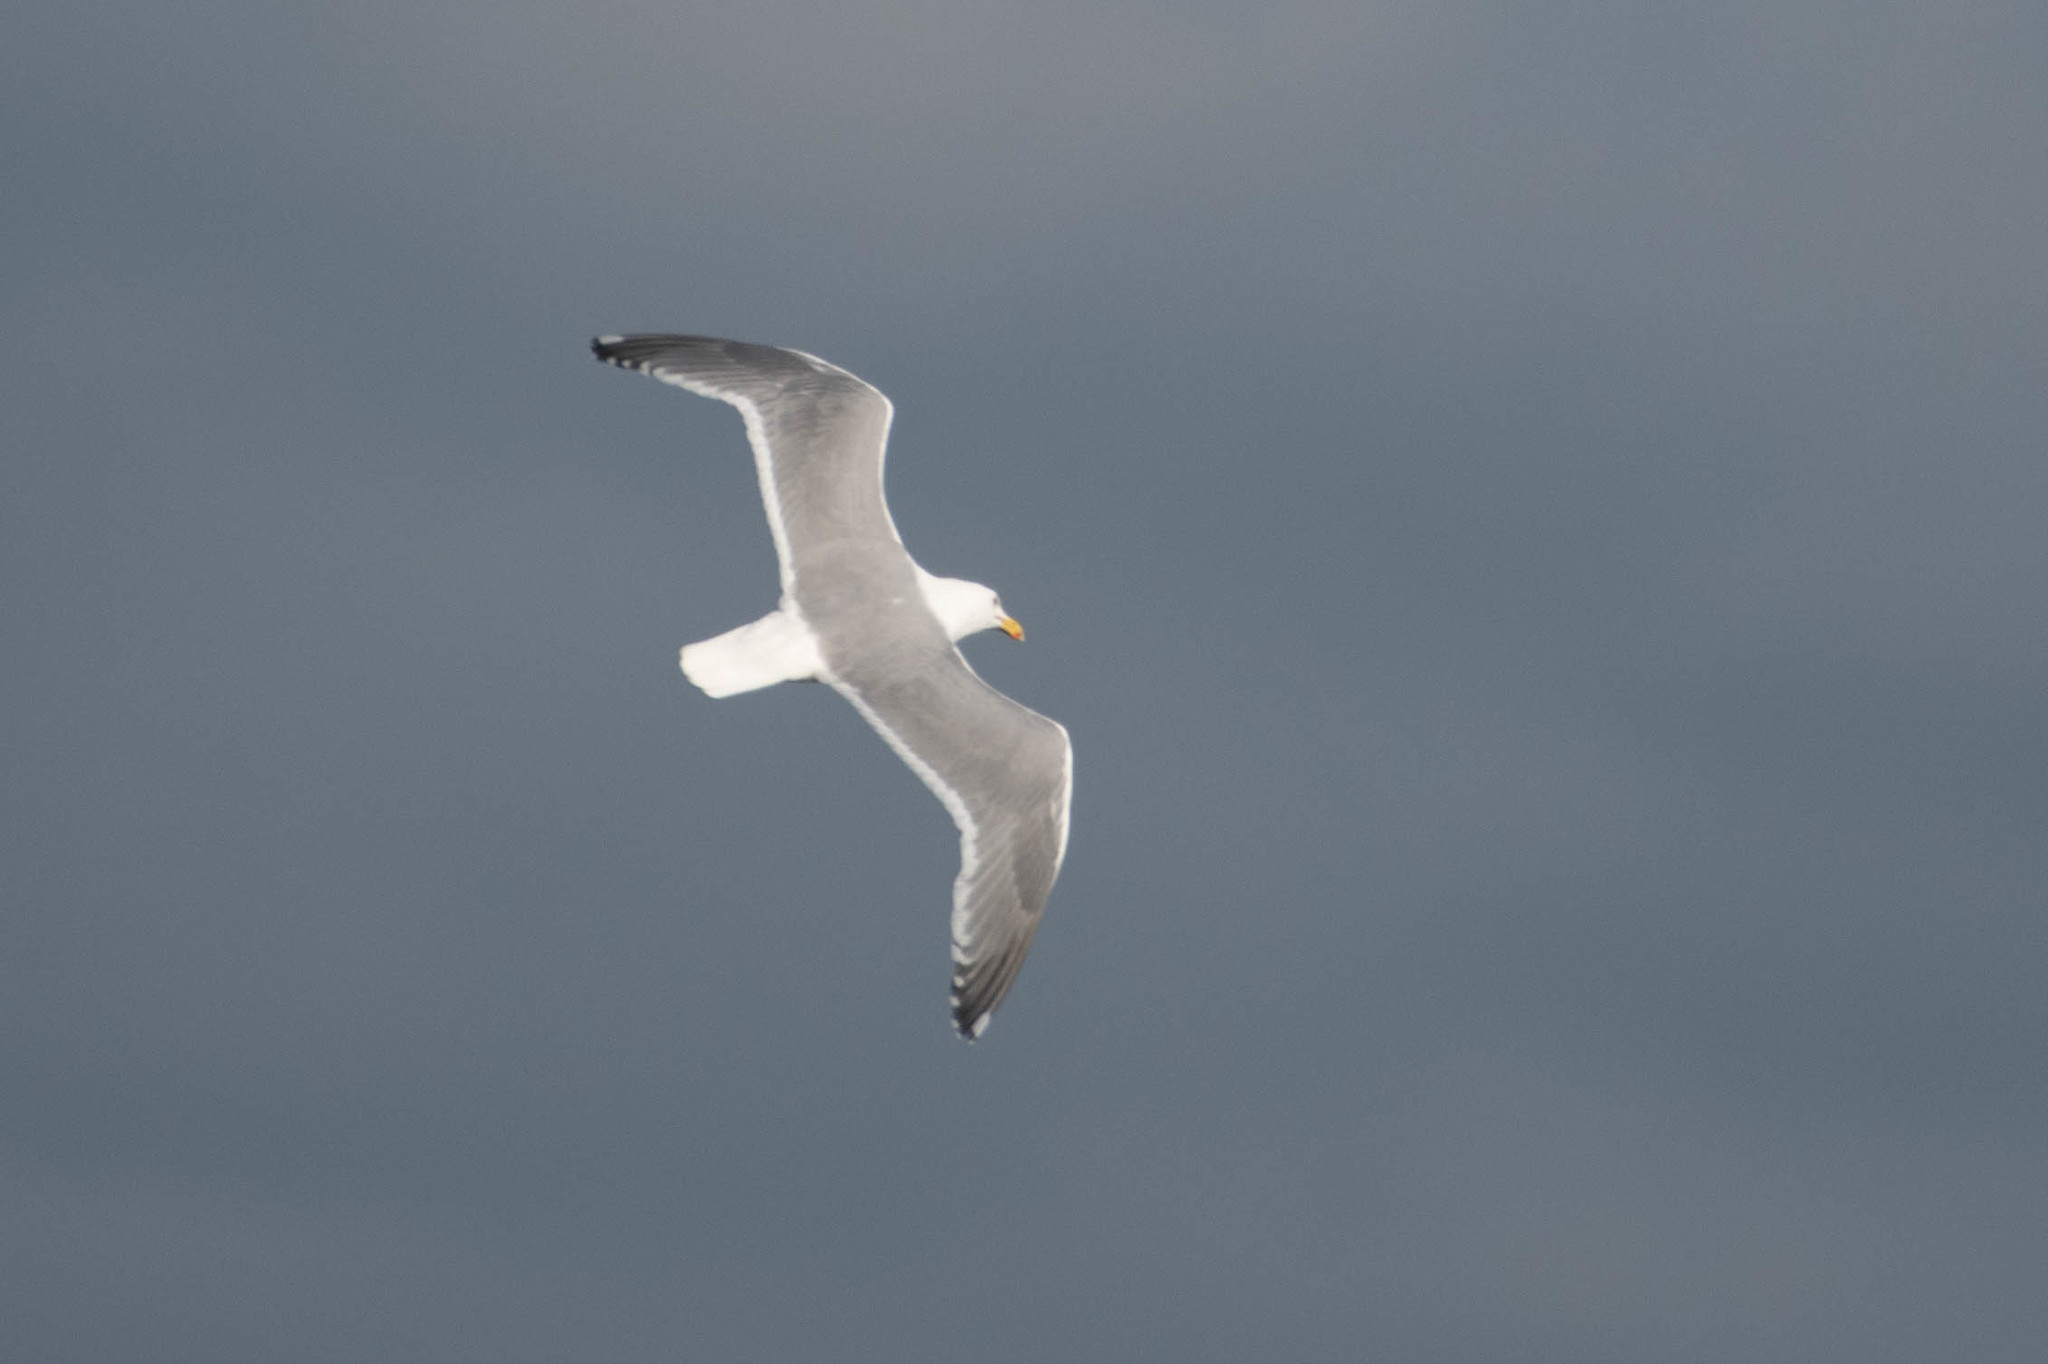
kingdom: Animalia
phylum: Chordata
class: Aves
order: Charadriiformes
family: Laridae
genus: Larus
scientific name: Larus
